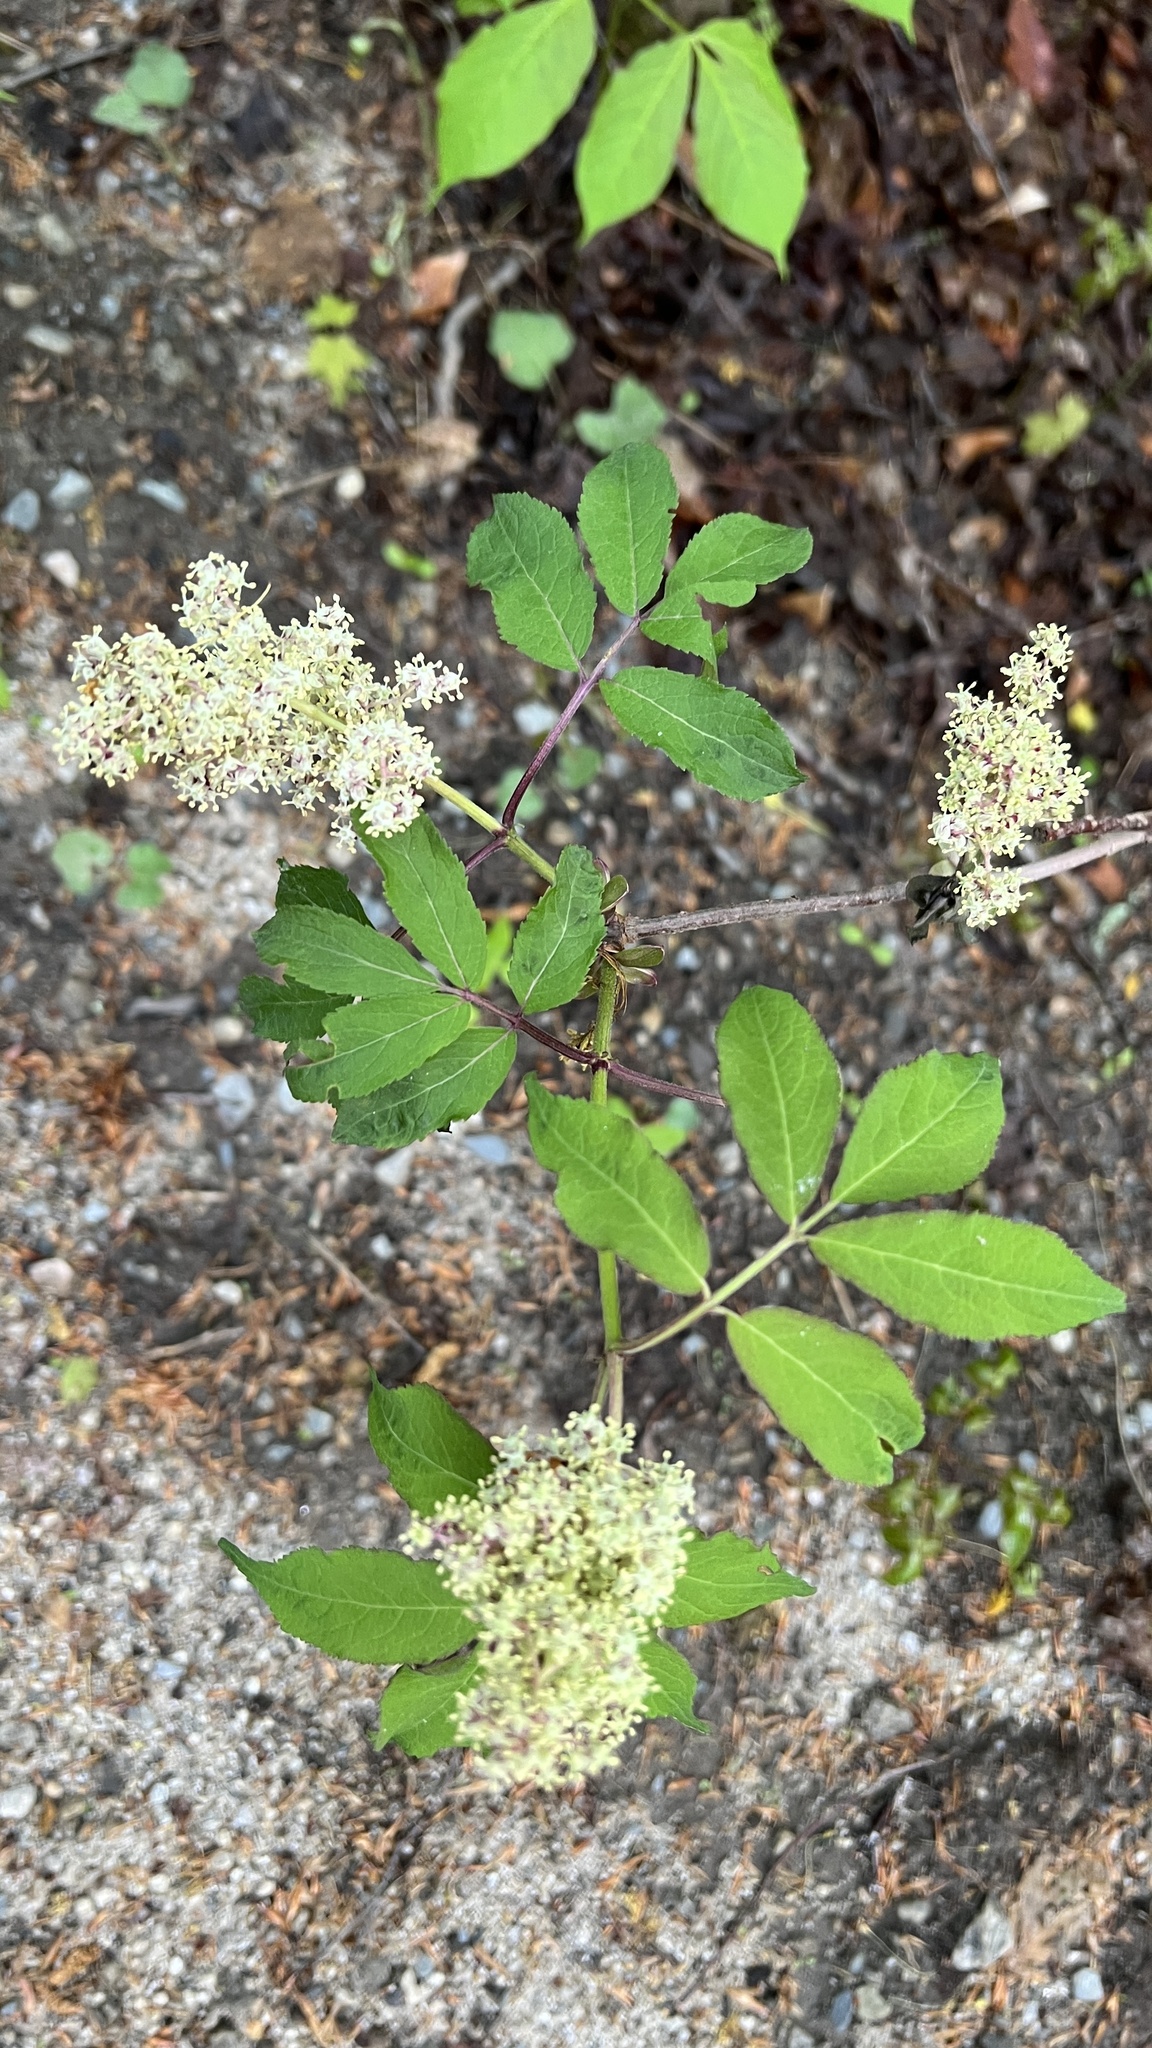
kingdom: Plantae
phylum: Tracheophyta
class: Magnoliopsida
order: Dipsacales
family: Viburnaceae
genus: Sambucus
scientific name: Sambucus racemosa
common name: Red-berried elder
